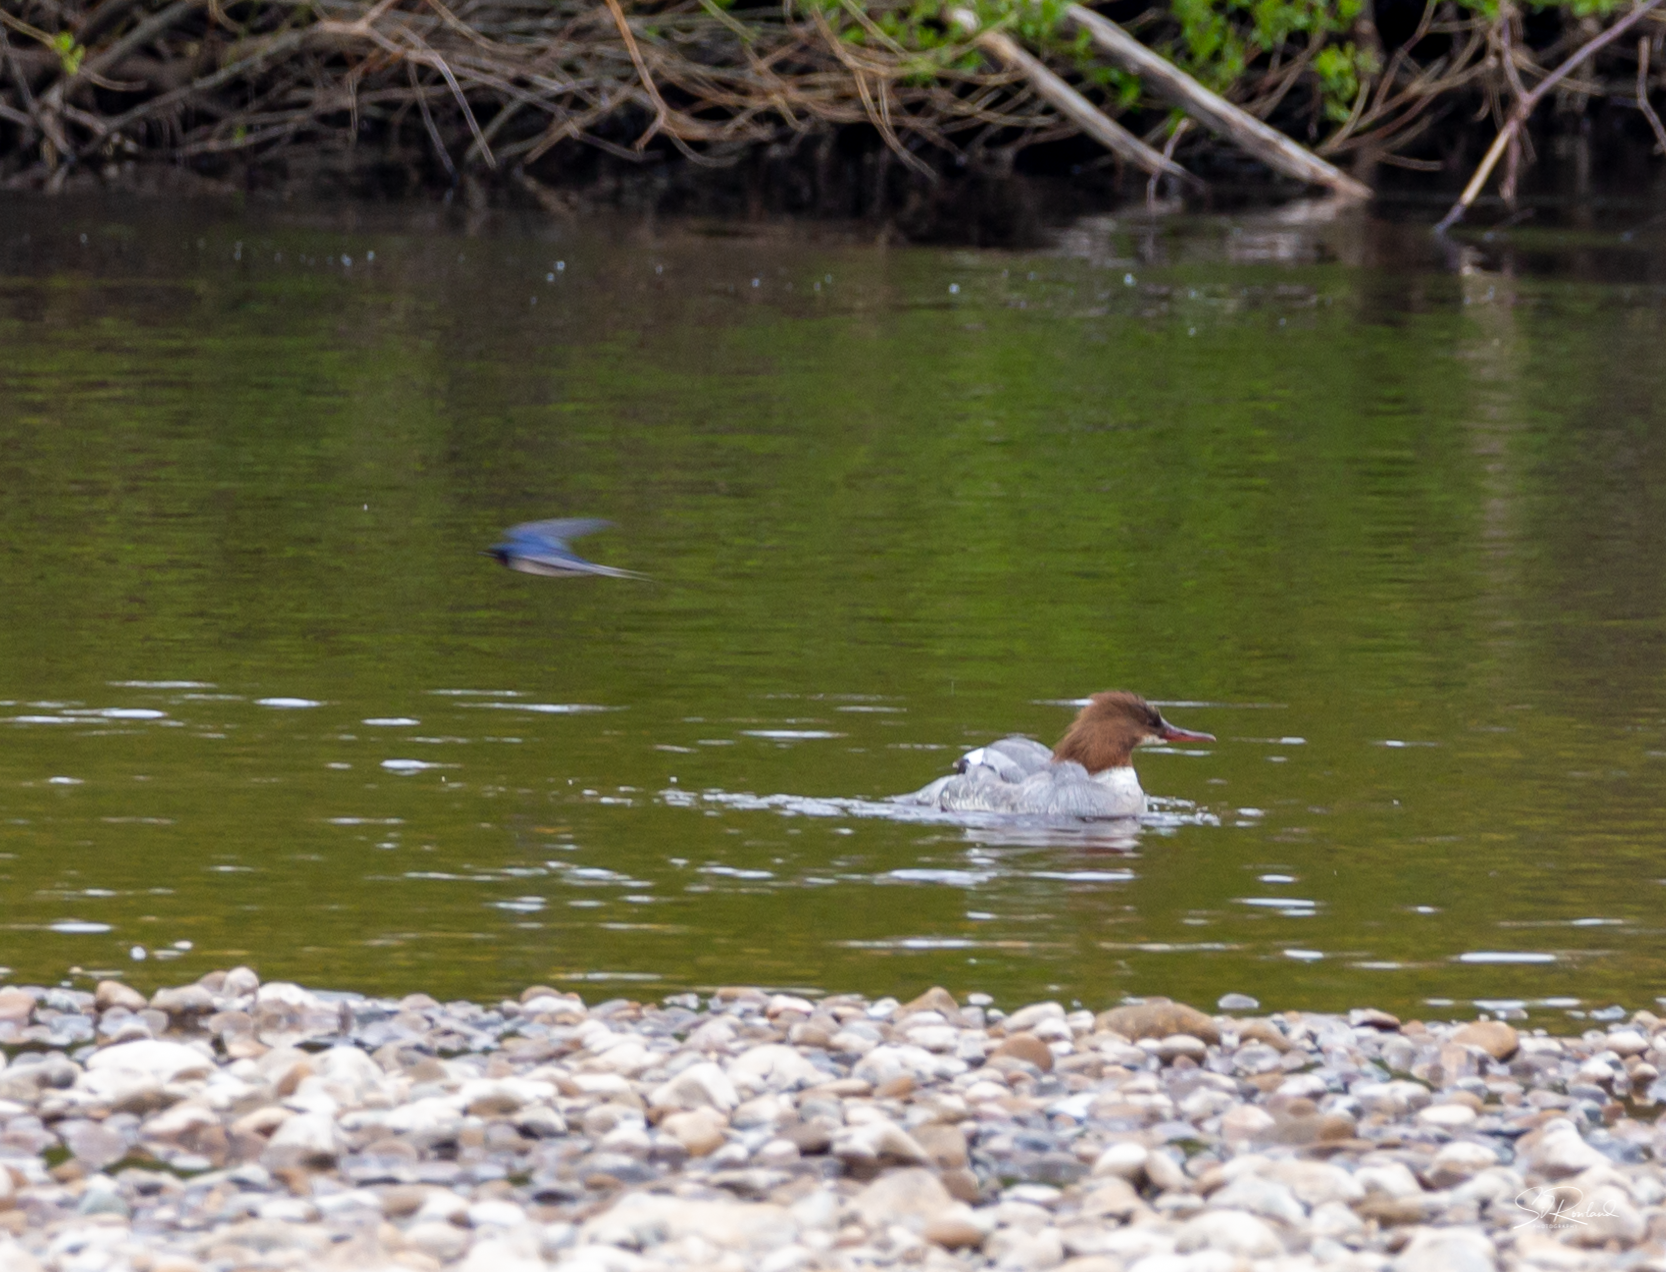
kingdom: Animalia
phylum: Chordata
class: Aves
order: Anseriformes
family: Anatidae
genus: Mergus
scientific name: Mergus merganser
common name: Common merganser
